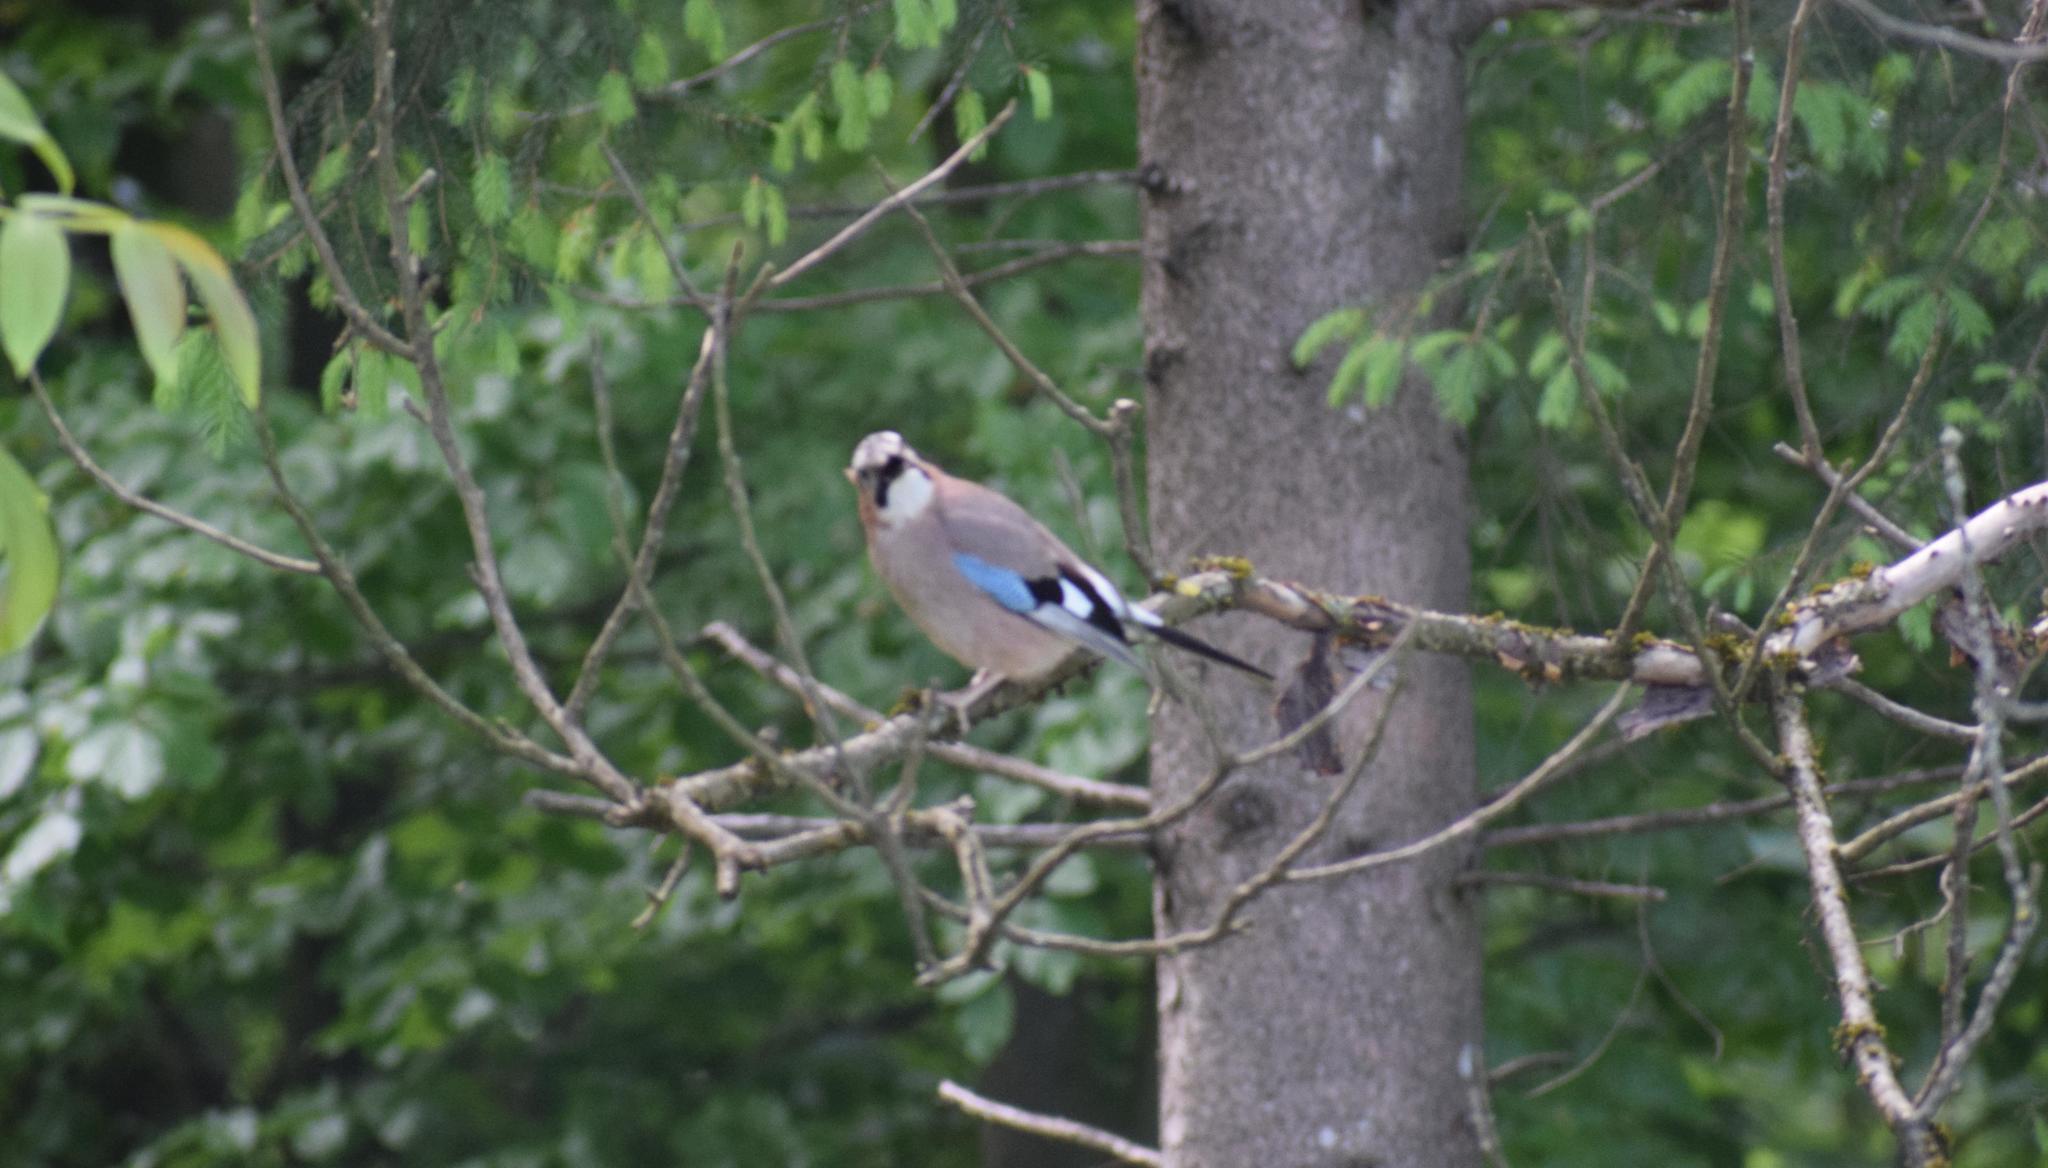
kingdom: Animalia
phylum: Chordata
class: Aves
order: Passeriformes
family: Corvidae
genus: Garrulus
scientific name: Garrulus glandarius
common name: Eurasian jay
